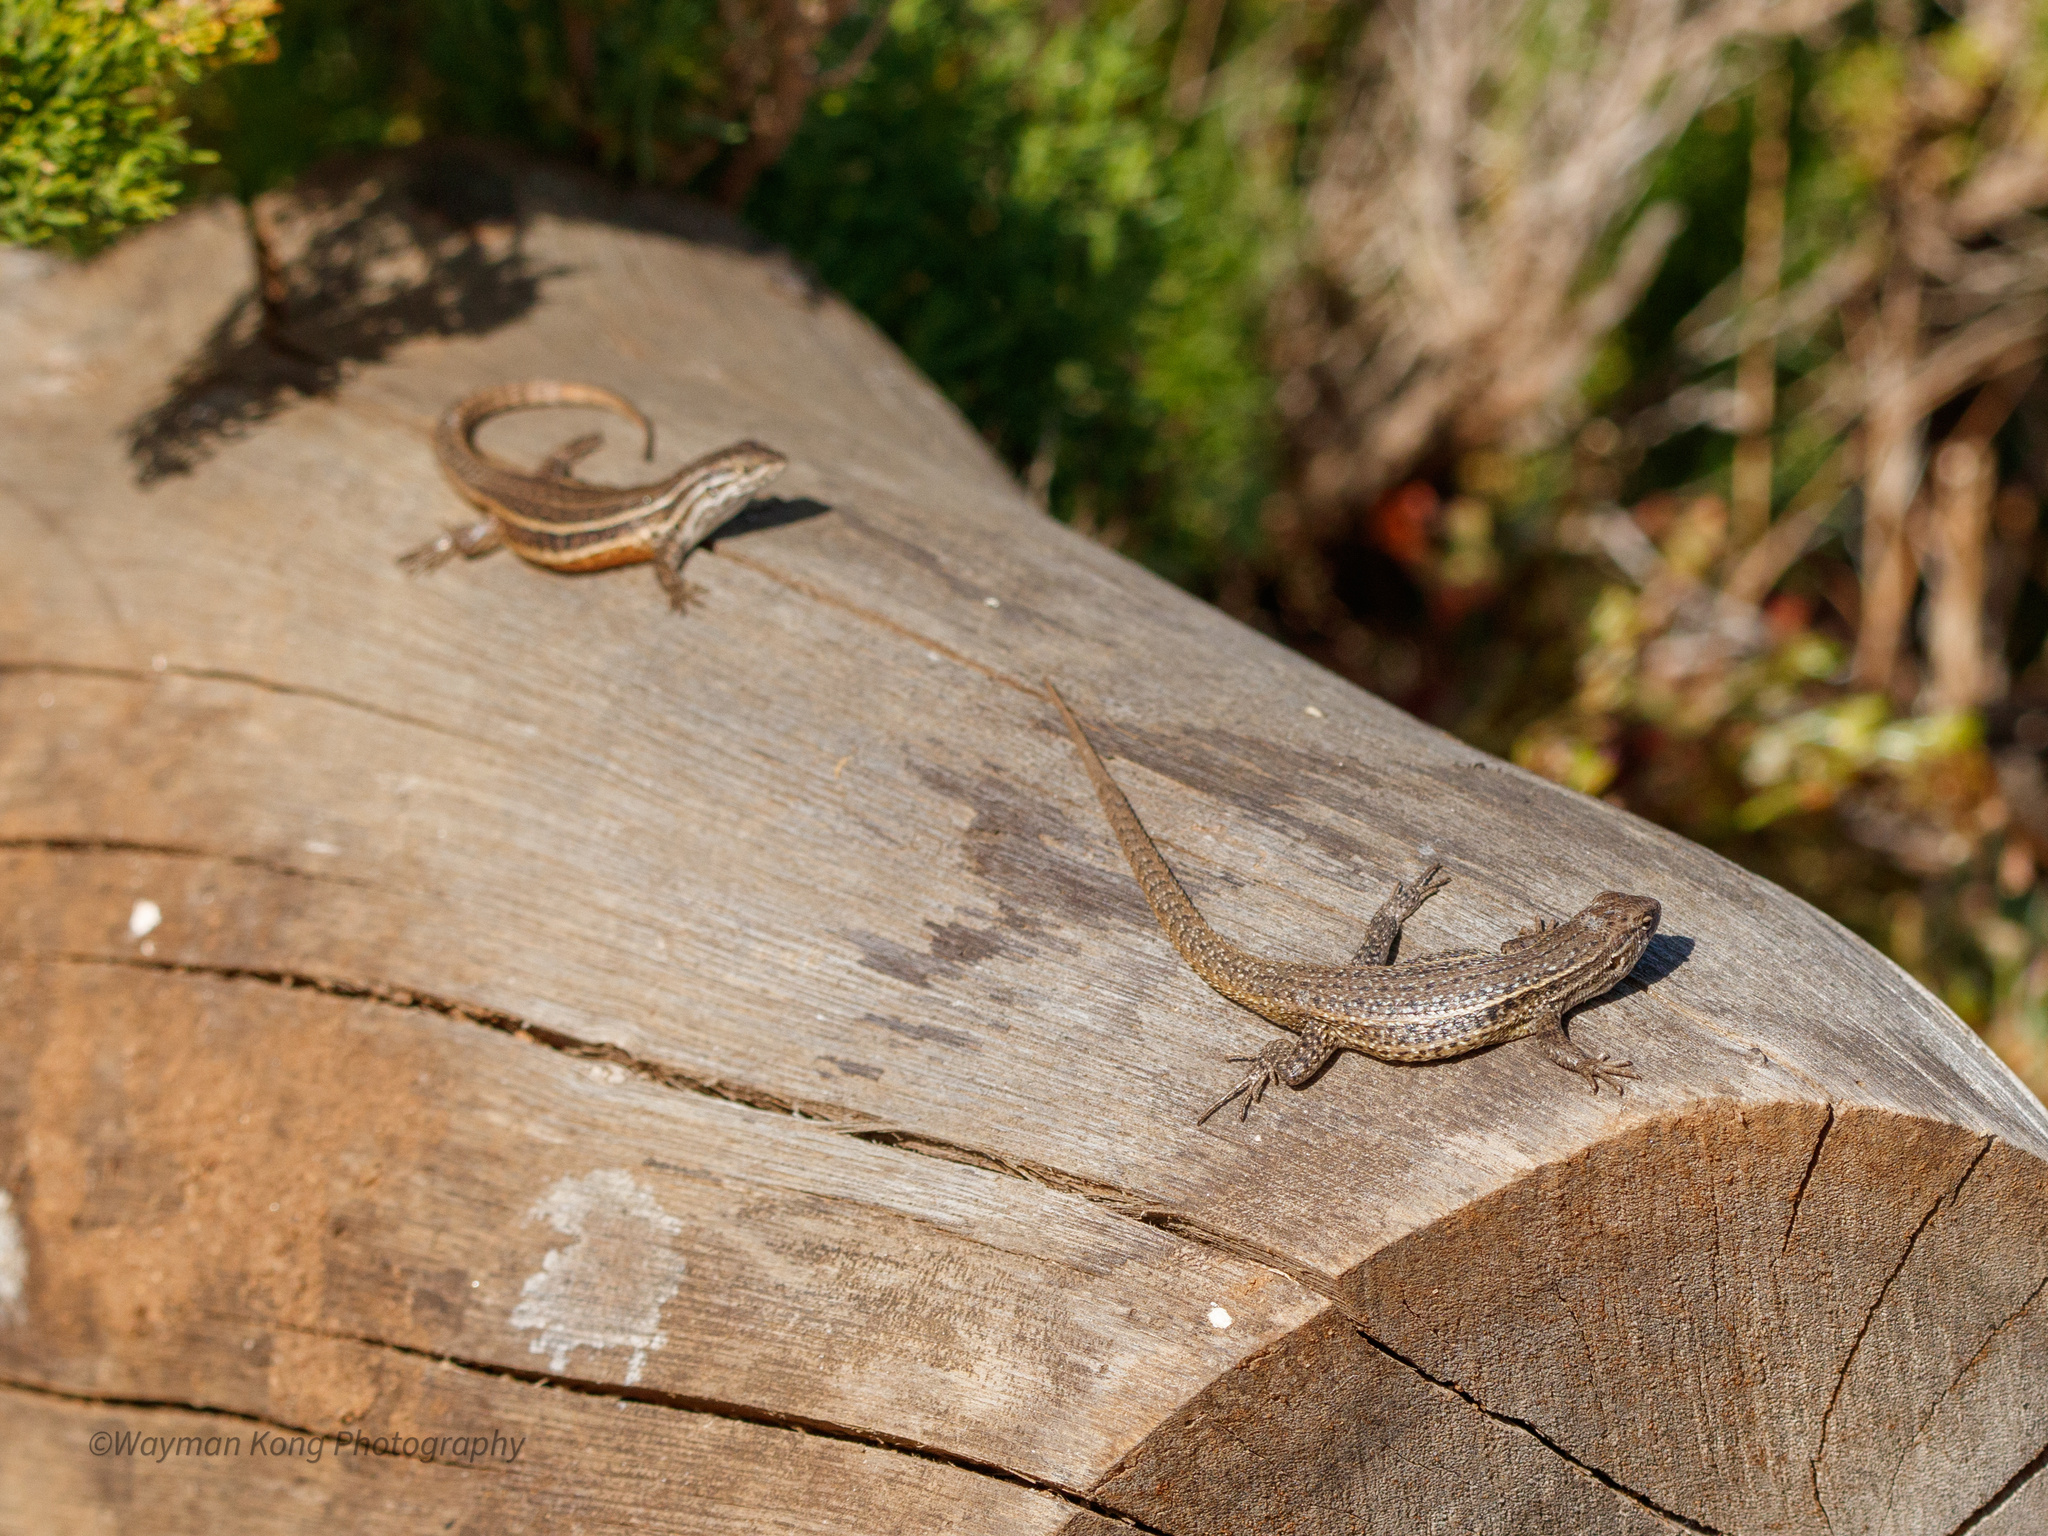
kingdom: Animalia
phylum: Chordata
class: Squamata
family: Liolaemidae
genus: Liolaemus
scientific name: Liolaemus fuscus
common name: Brown tree iguana
